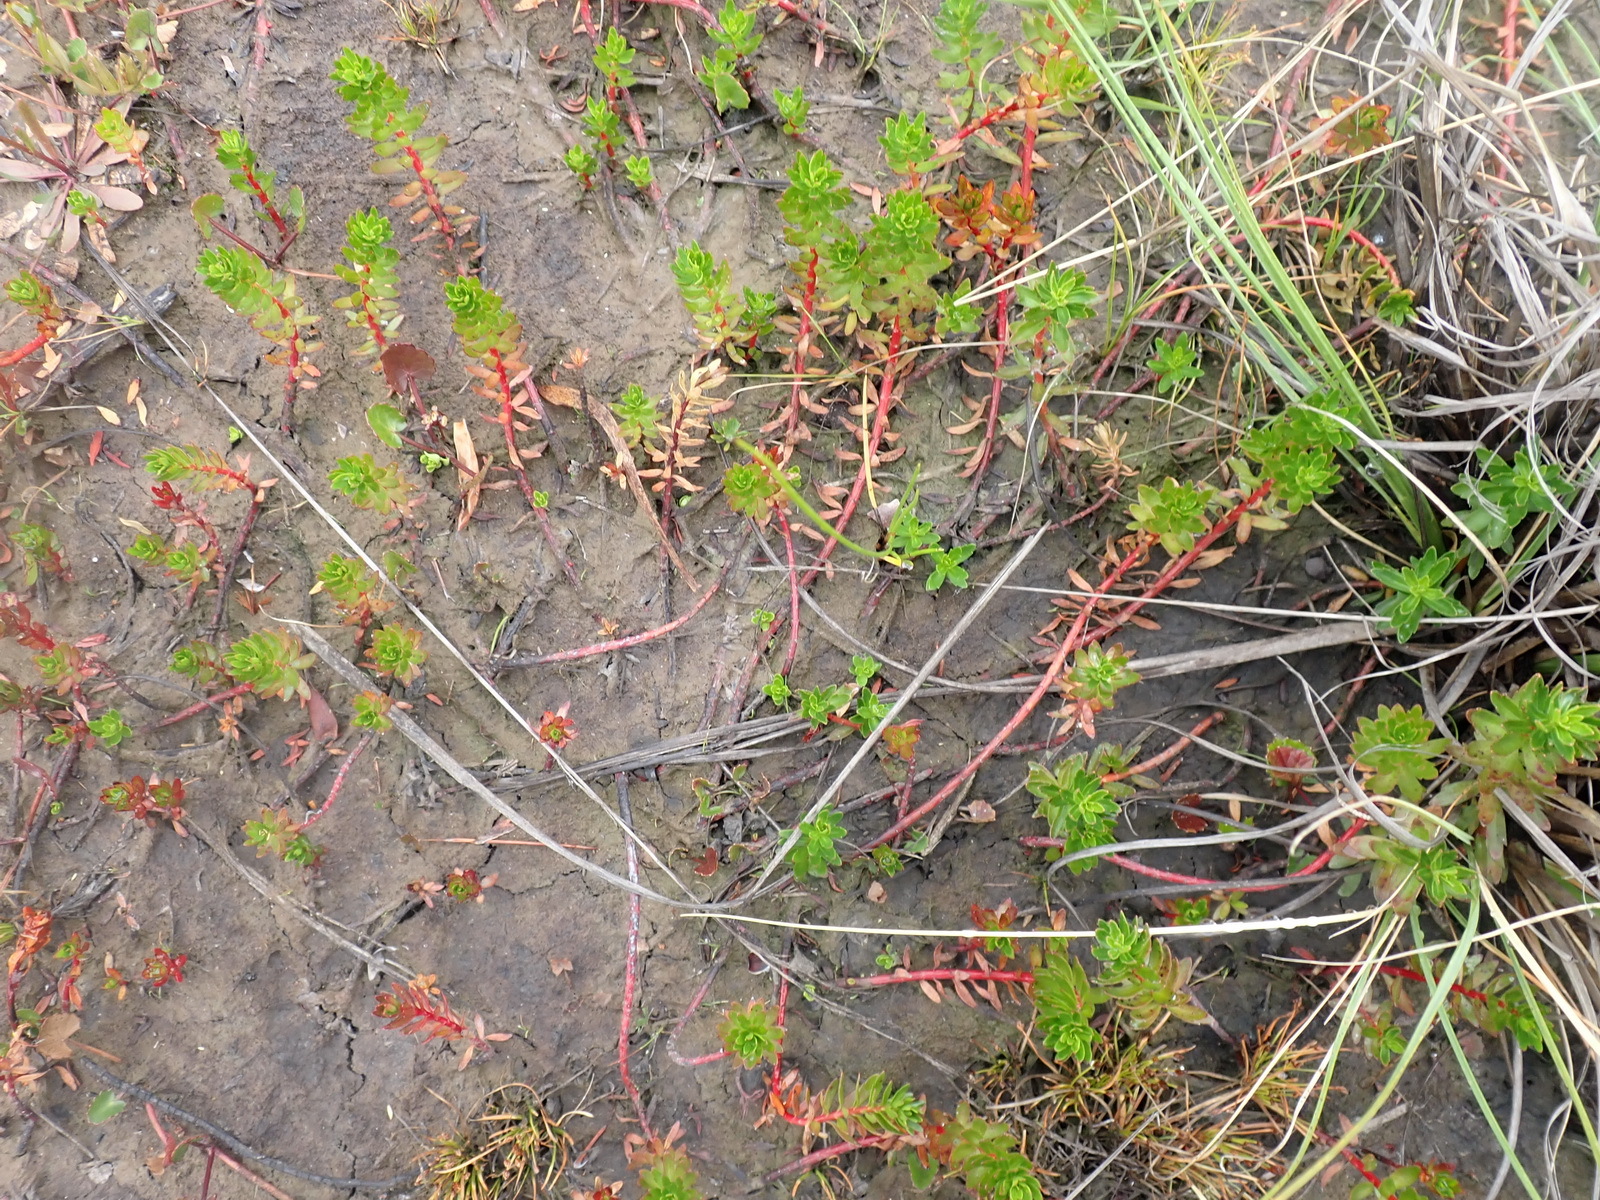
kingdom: Plantae
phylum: Tracheophyta
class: Magnoliopsida
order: Saxifragales
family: Haloragaceae
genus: Laurembergia
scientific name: Laurembergia repens
